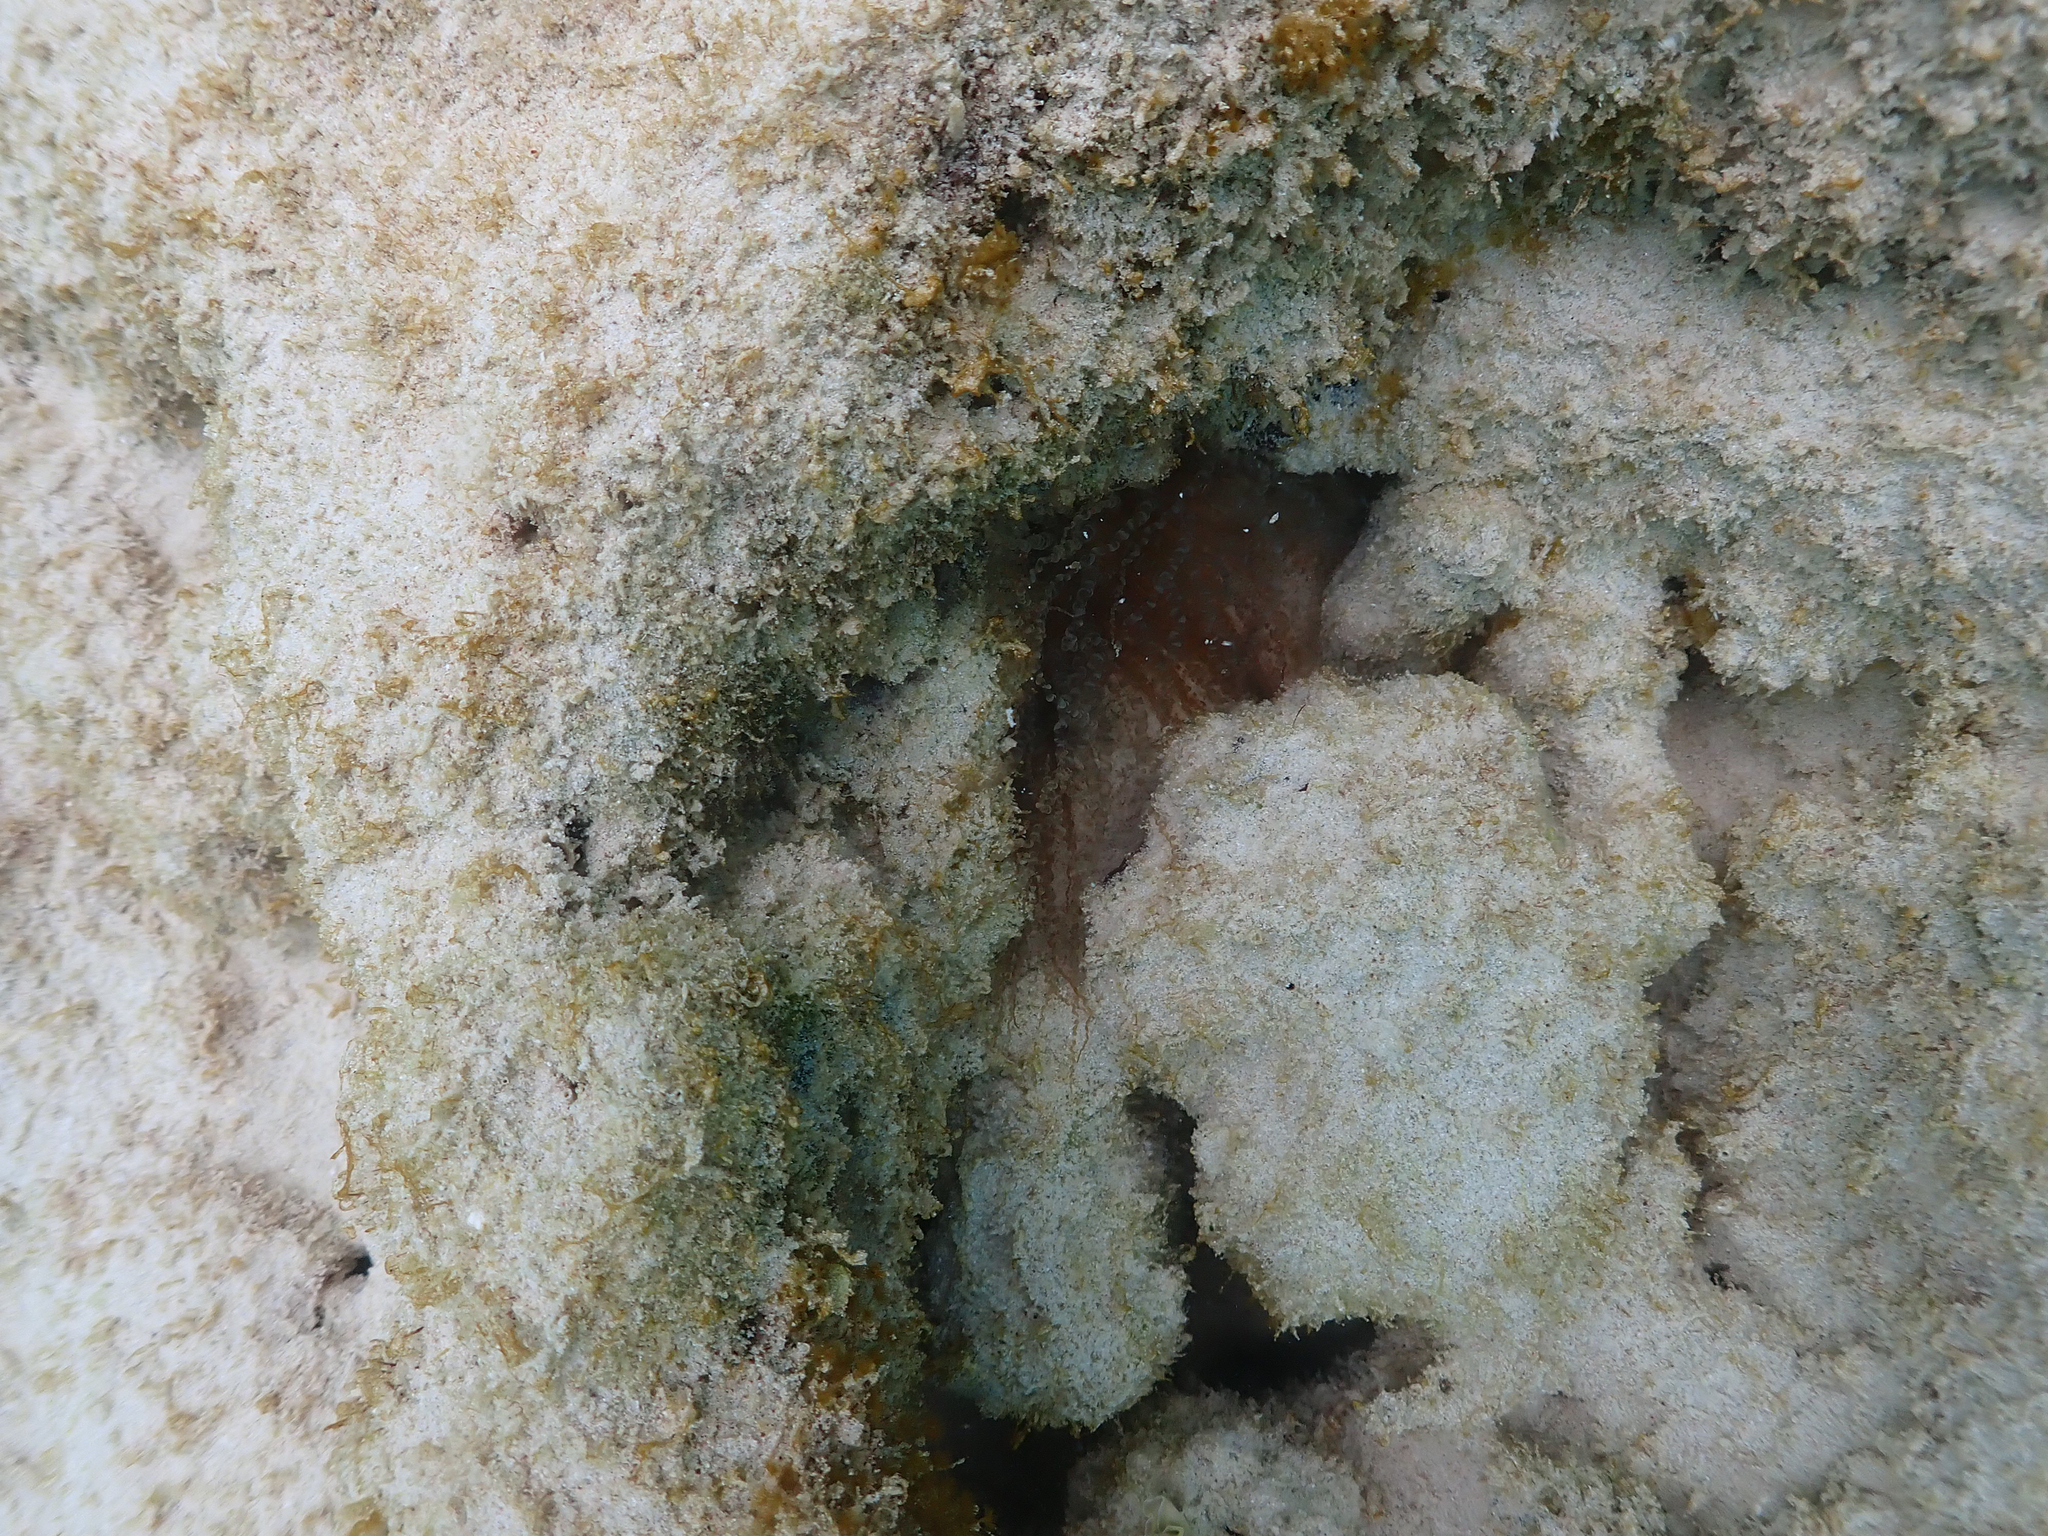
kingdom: Animalia
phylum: Cnidaria
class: Anthozoa
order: Actiniaria
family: Aiptasiidae
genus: Bartholomea
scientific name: Bartholomea annulata
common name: Corkscrew anemone
